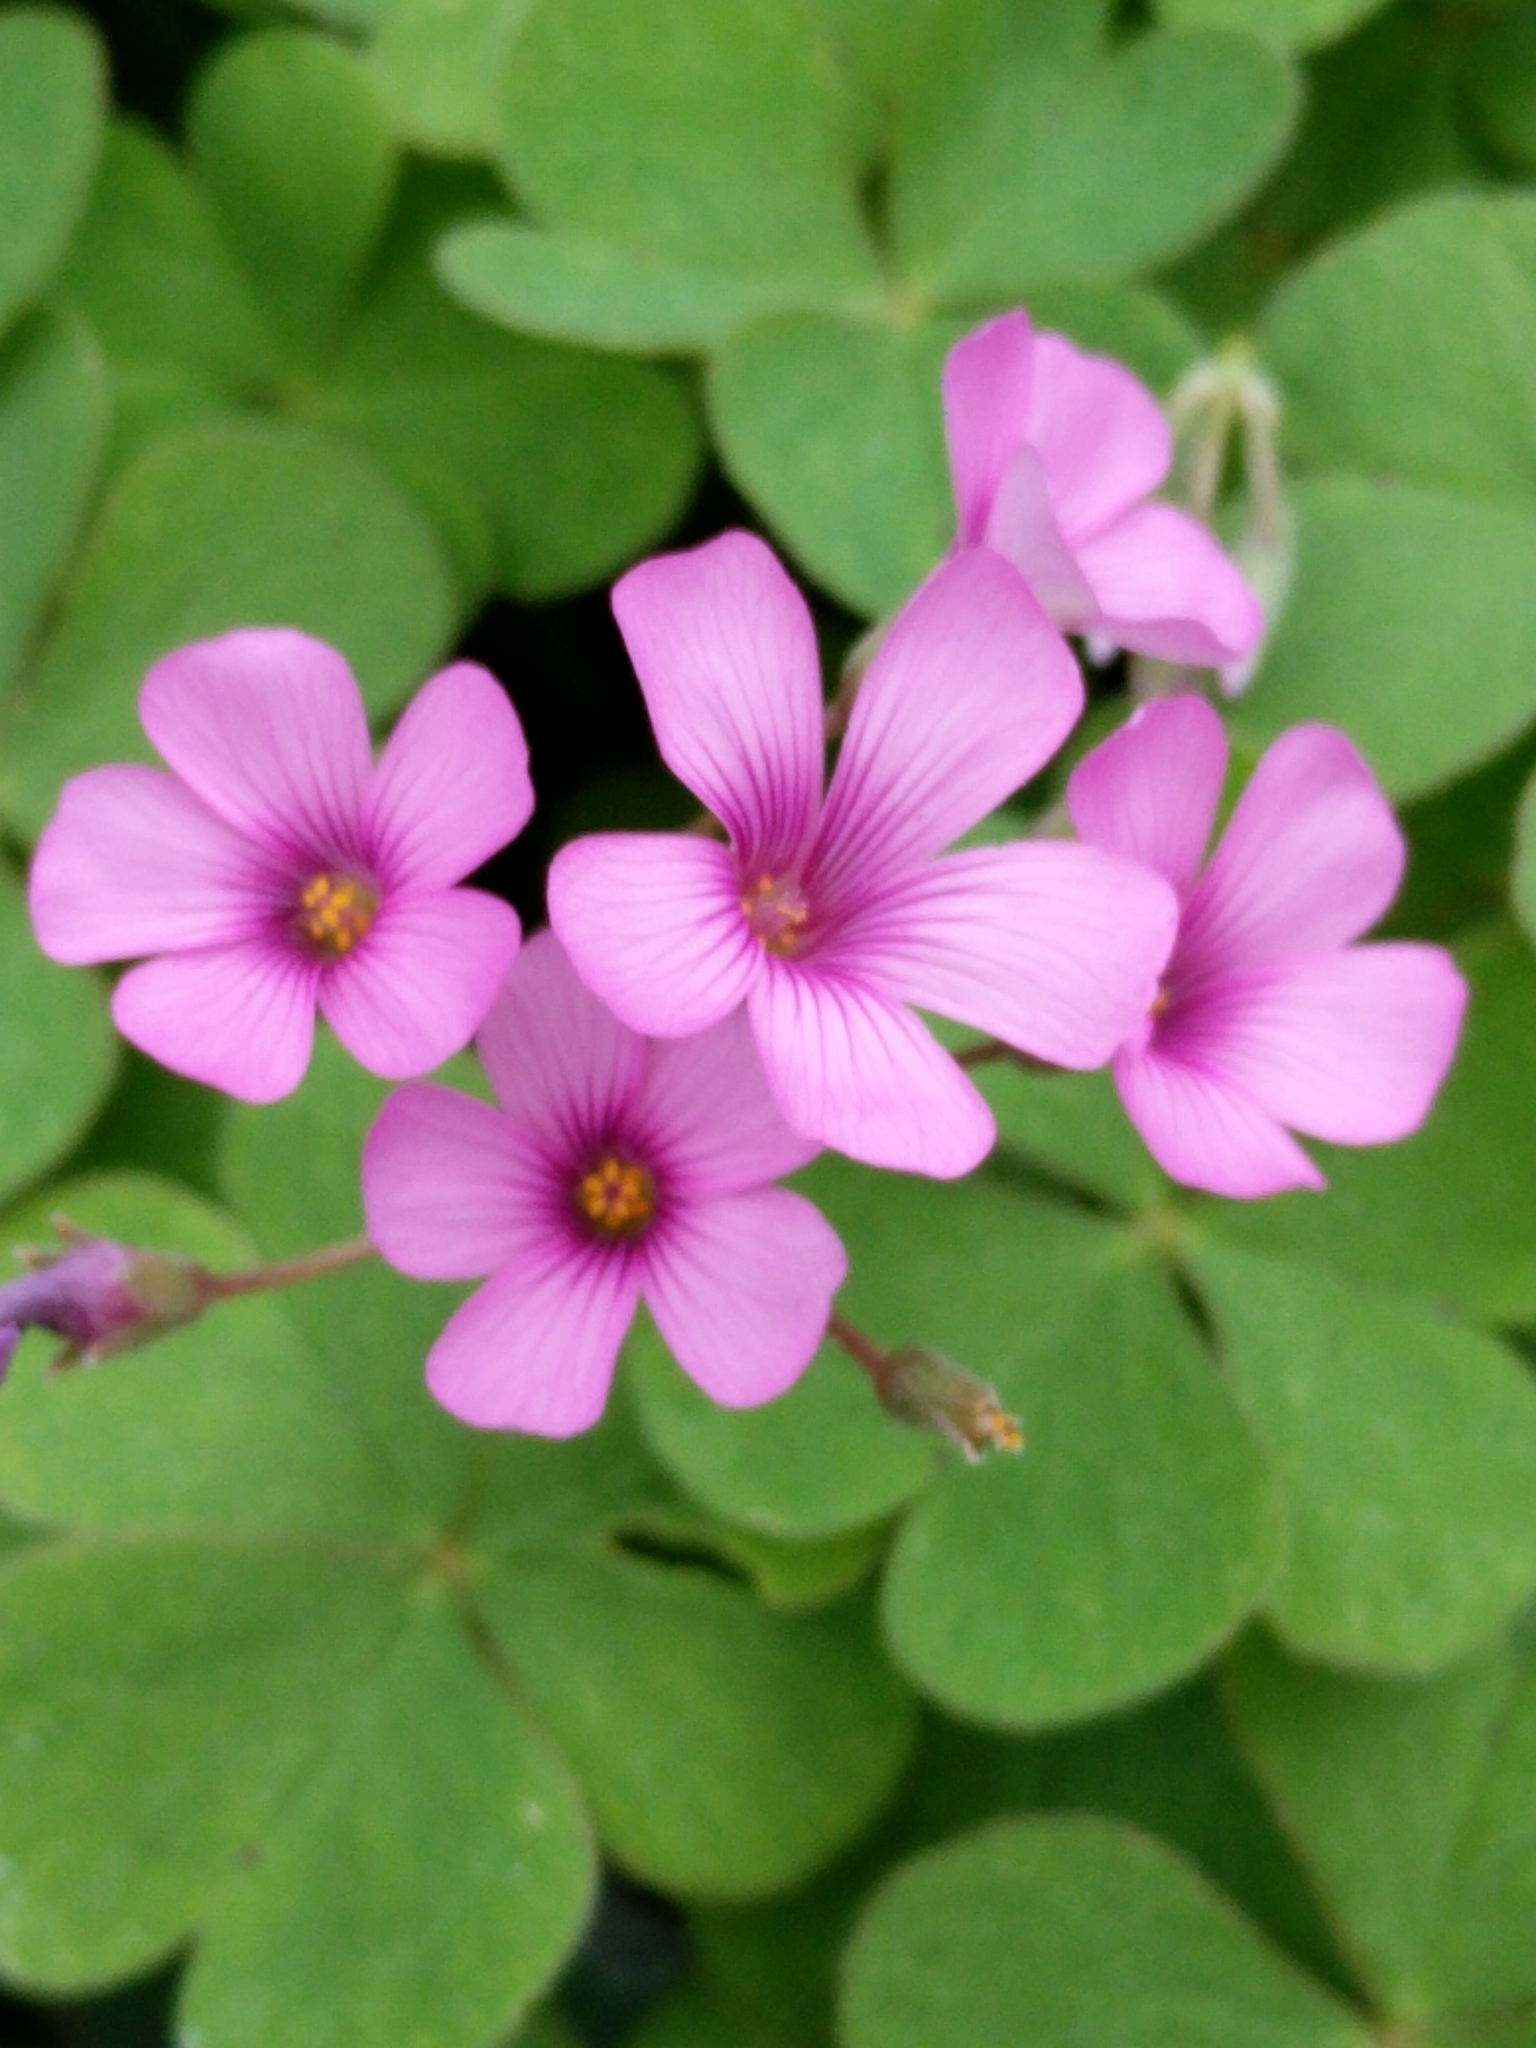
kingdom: Plantae
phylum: Tracheophyta
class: Magnoliopsida
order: Oxalidales
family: Oxalidaceae
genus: Oxalis
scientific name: Oxalis articulata
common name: Pink-sorrel
